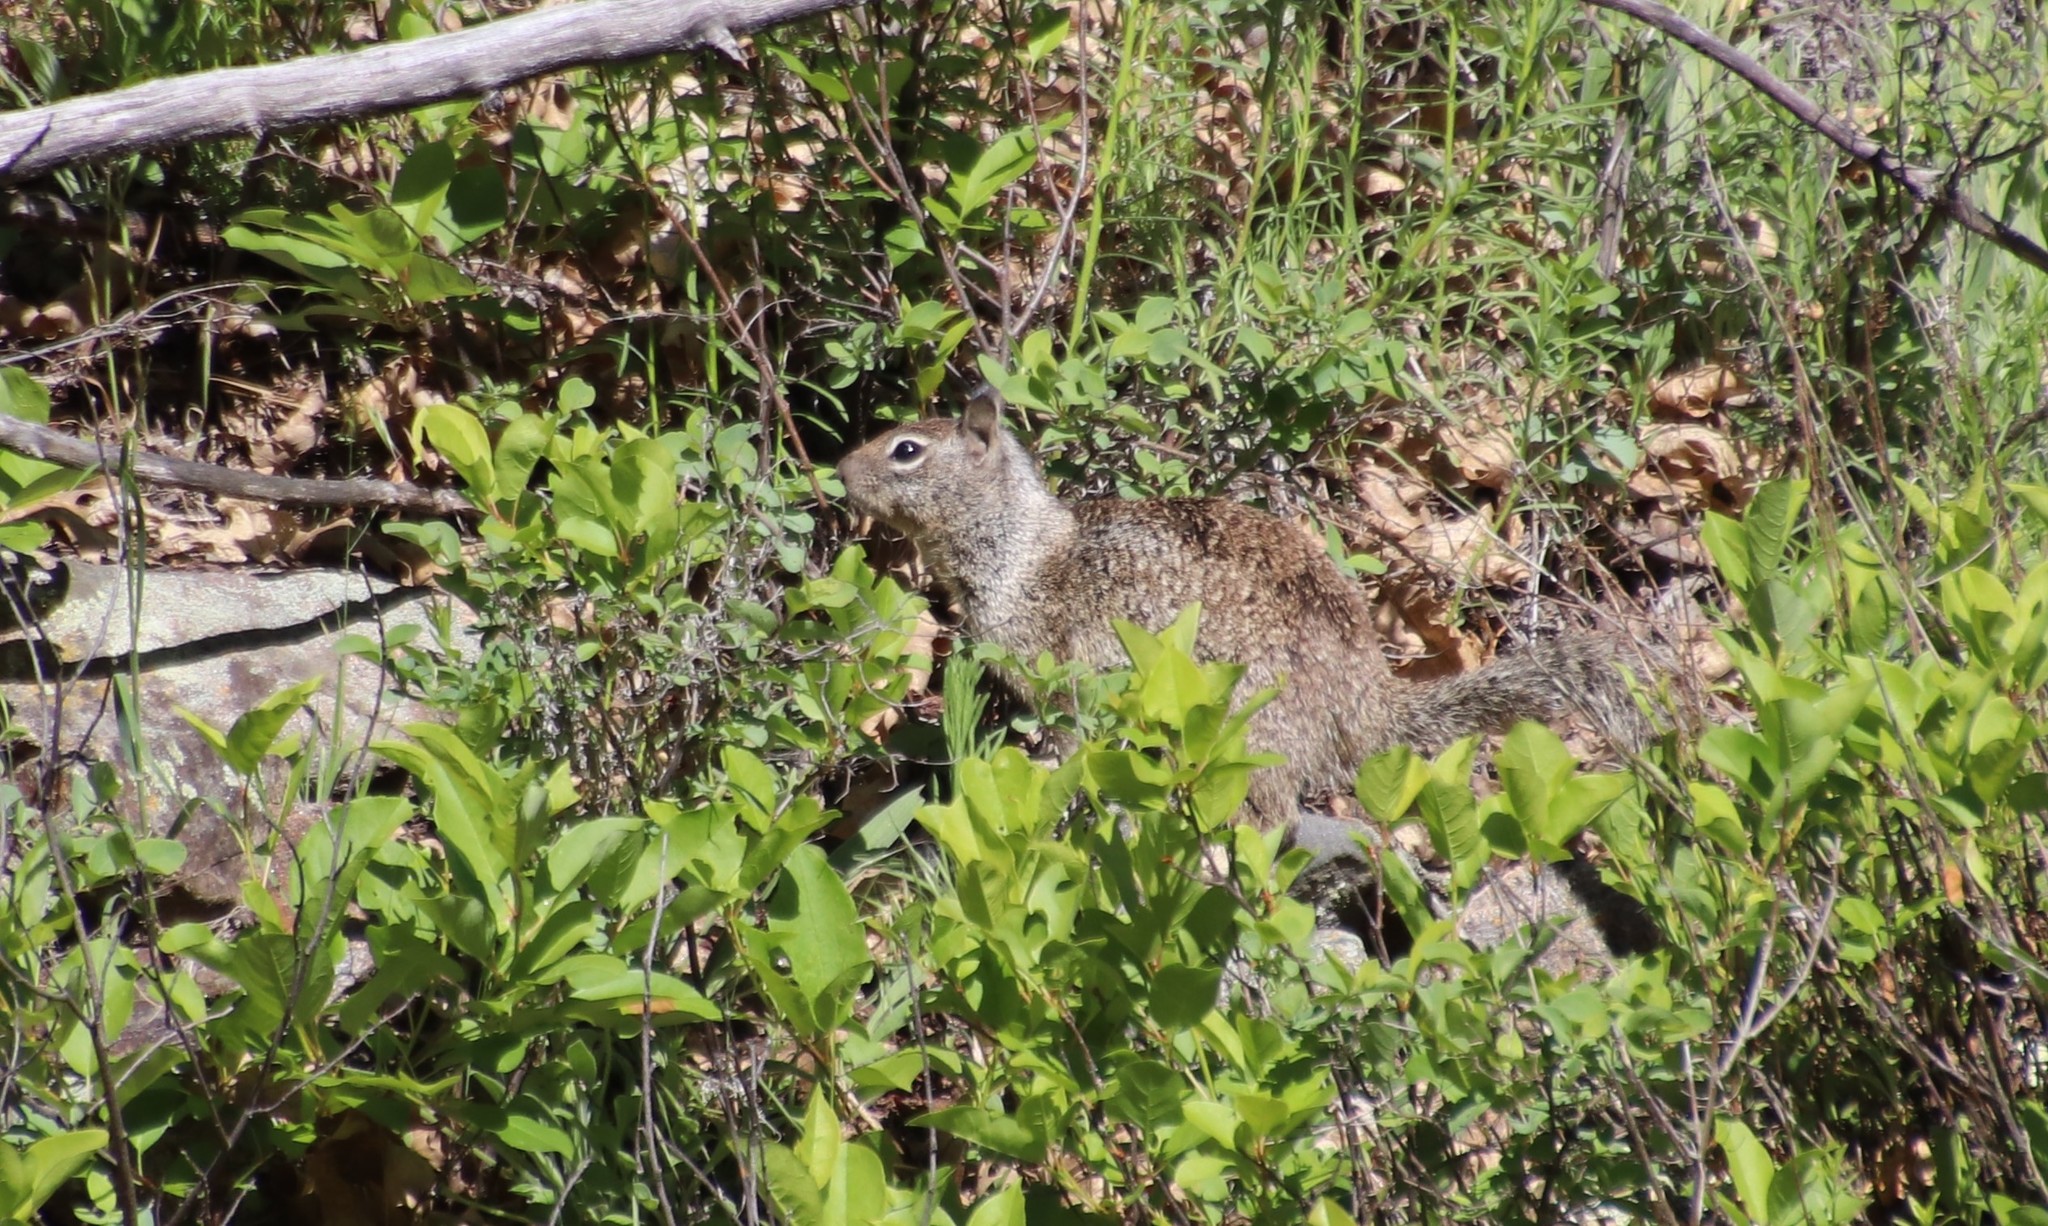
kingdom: Animalia
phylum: Chordata
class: Mammalia
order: Rodentia
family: Sciuridae
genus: Otospermophilus
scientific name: Otospermophilus beecheyi
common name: California ground squirrel
